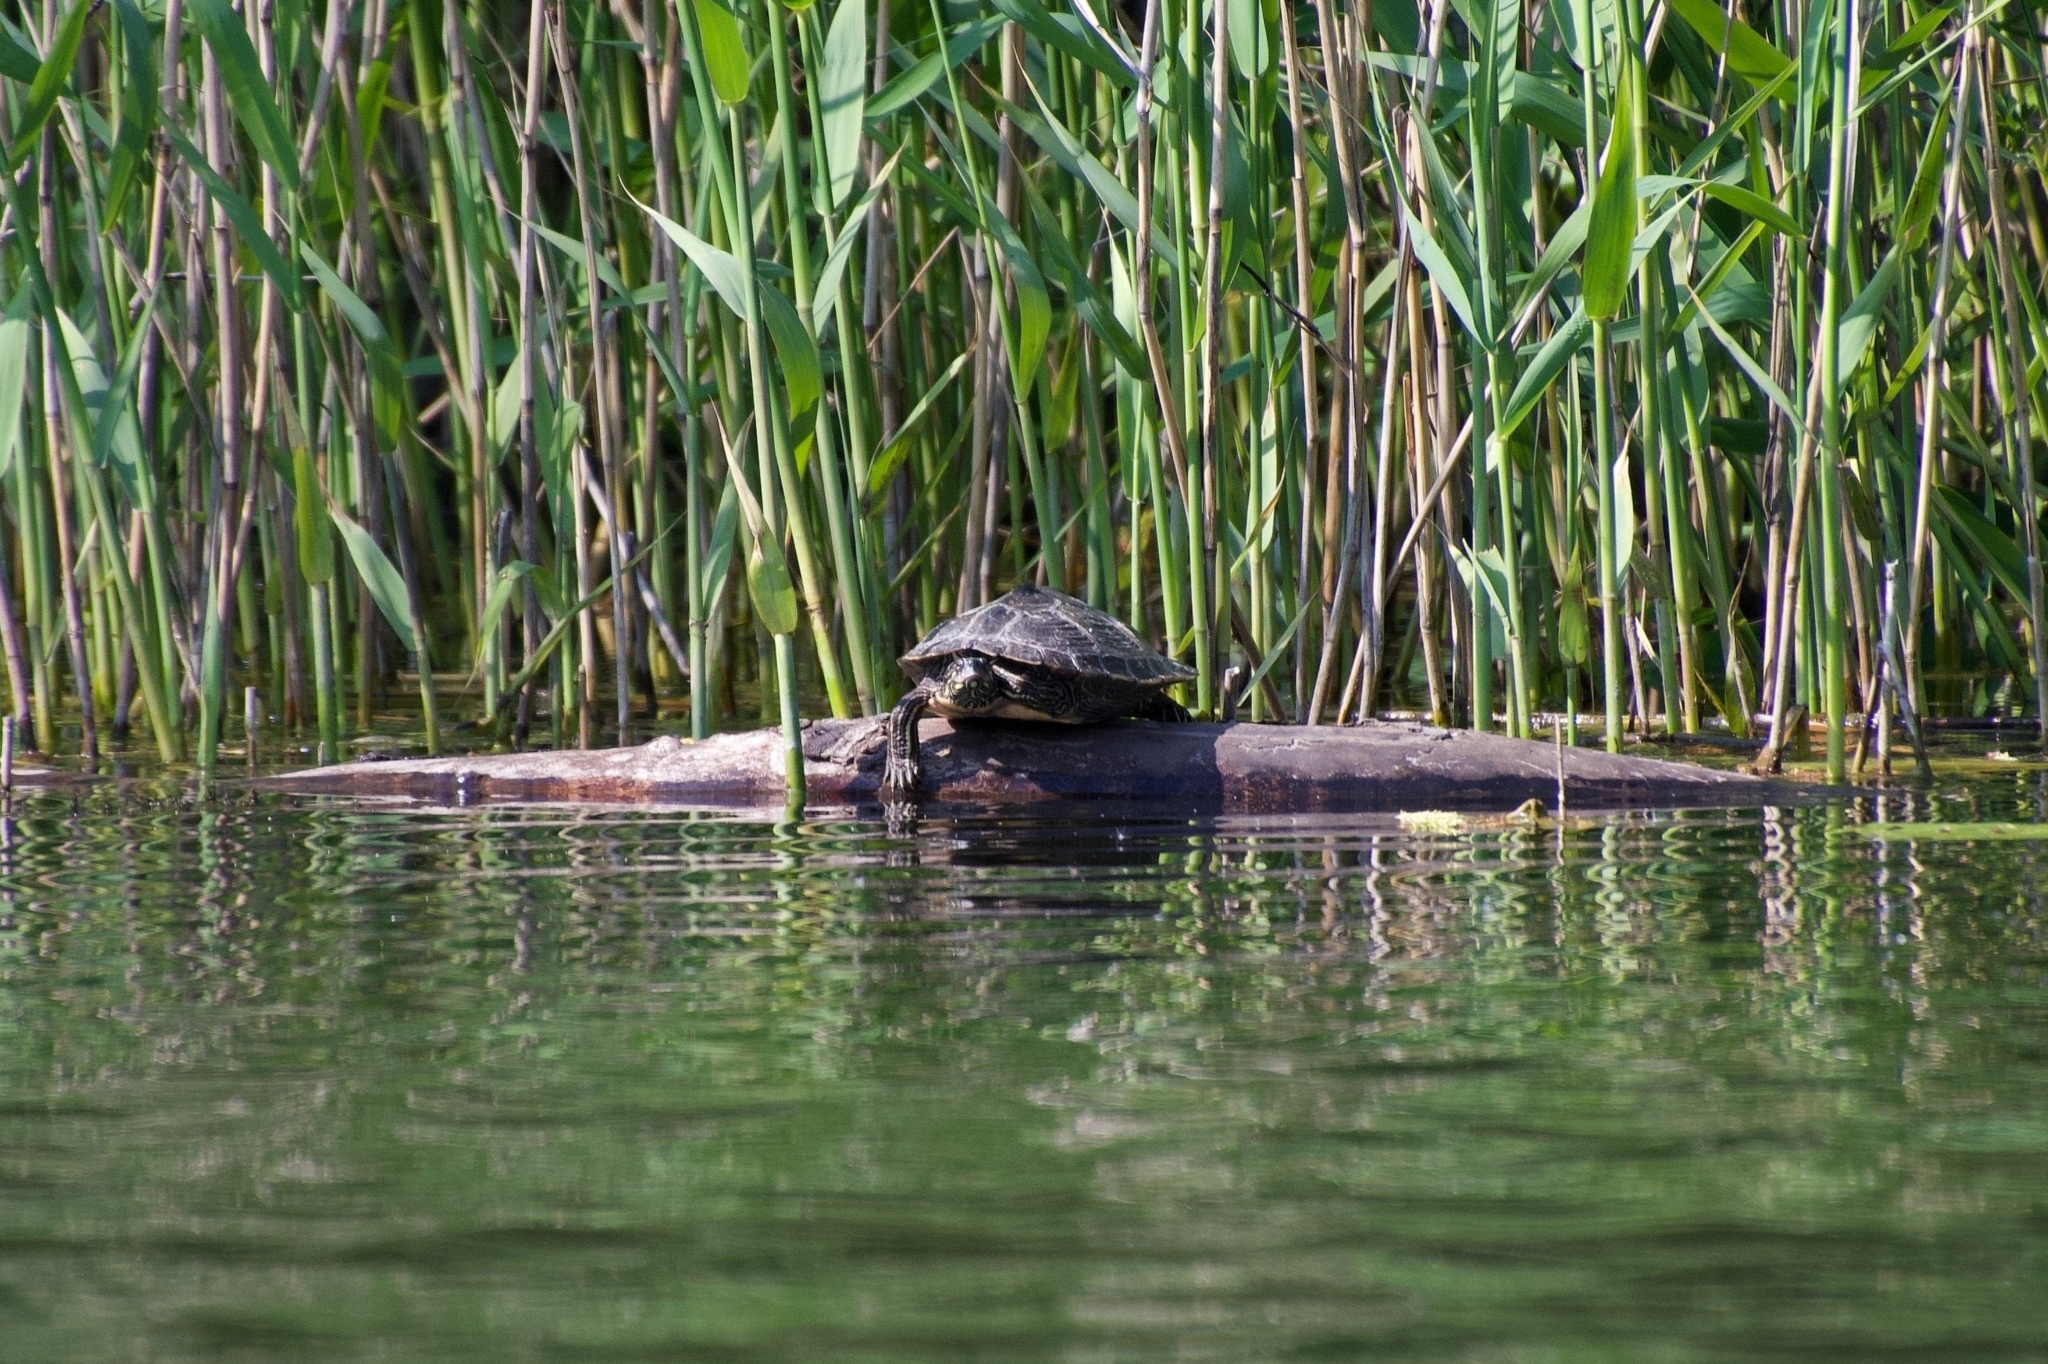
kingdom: Animalia
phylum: Chordata
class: Testudines
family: Emydidae
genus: Graptemys
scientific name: Graptemys ouachitensis
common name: Ouachita map turtle
